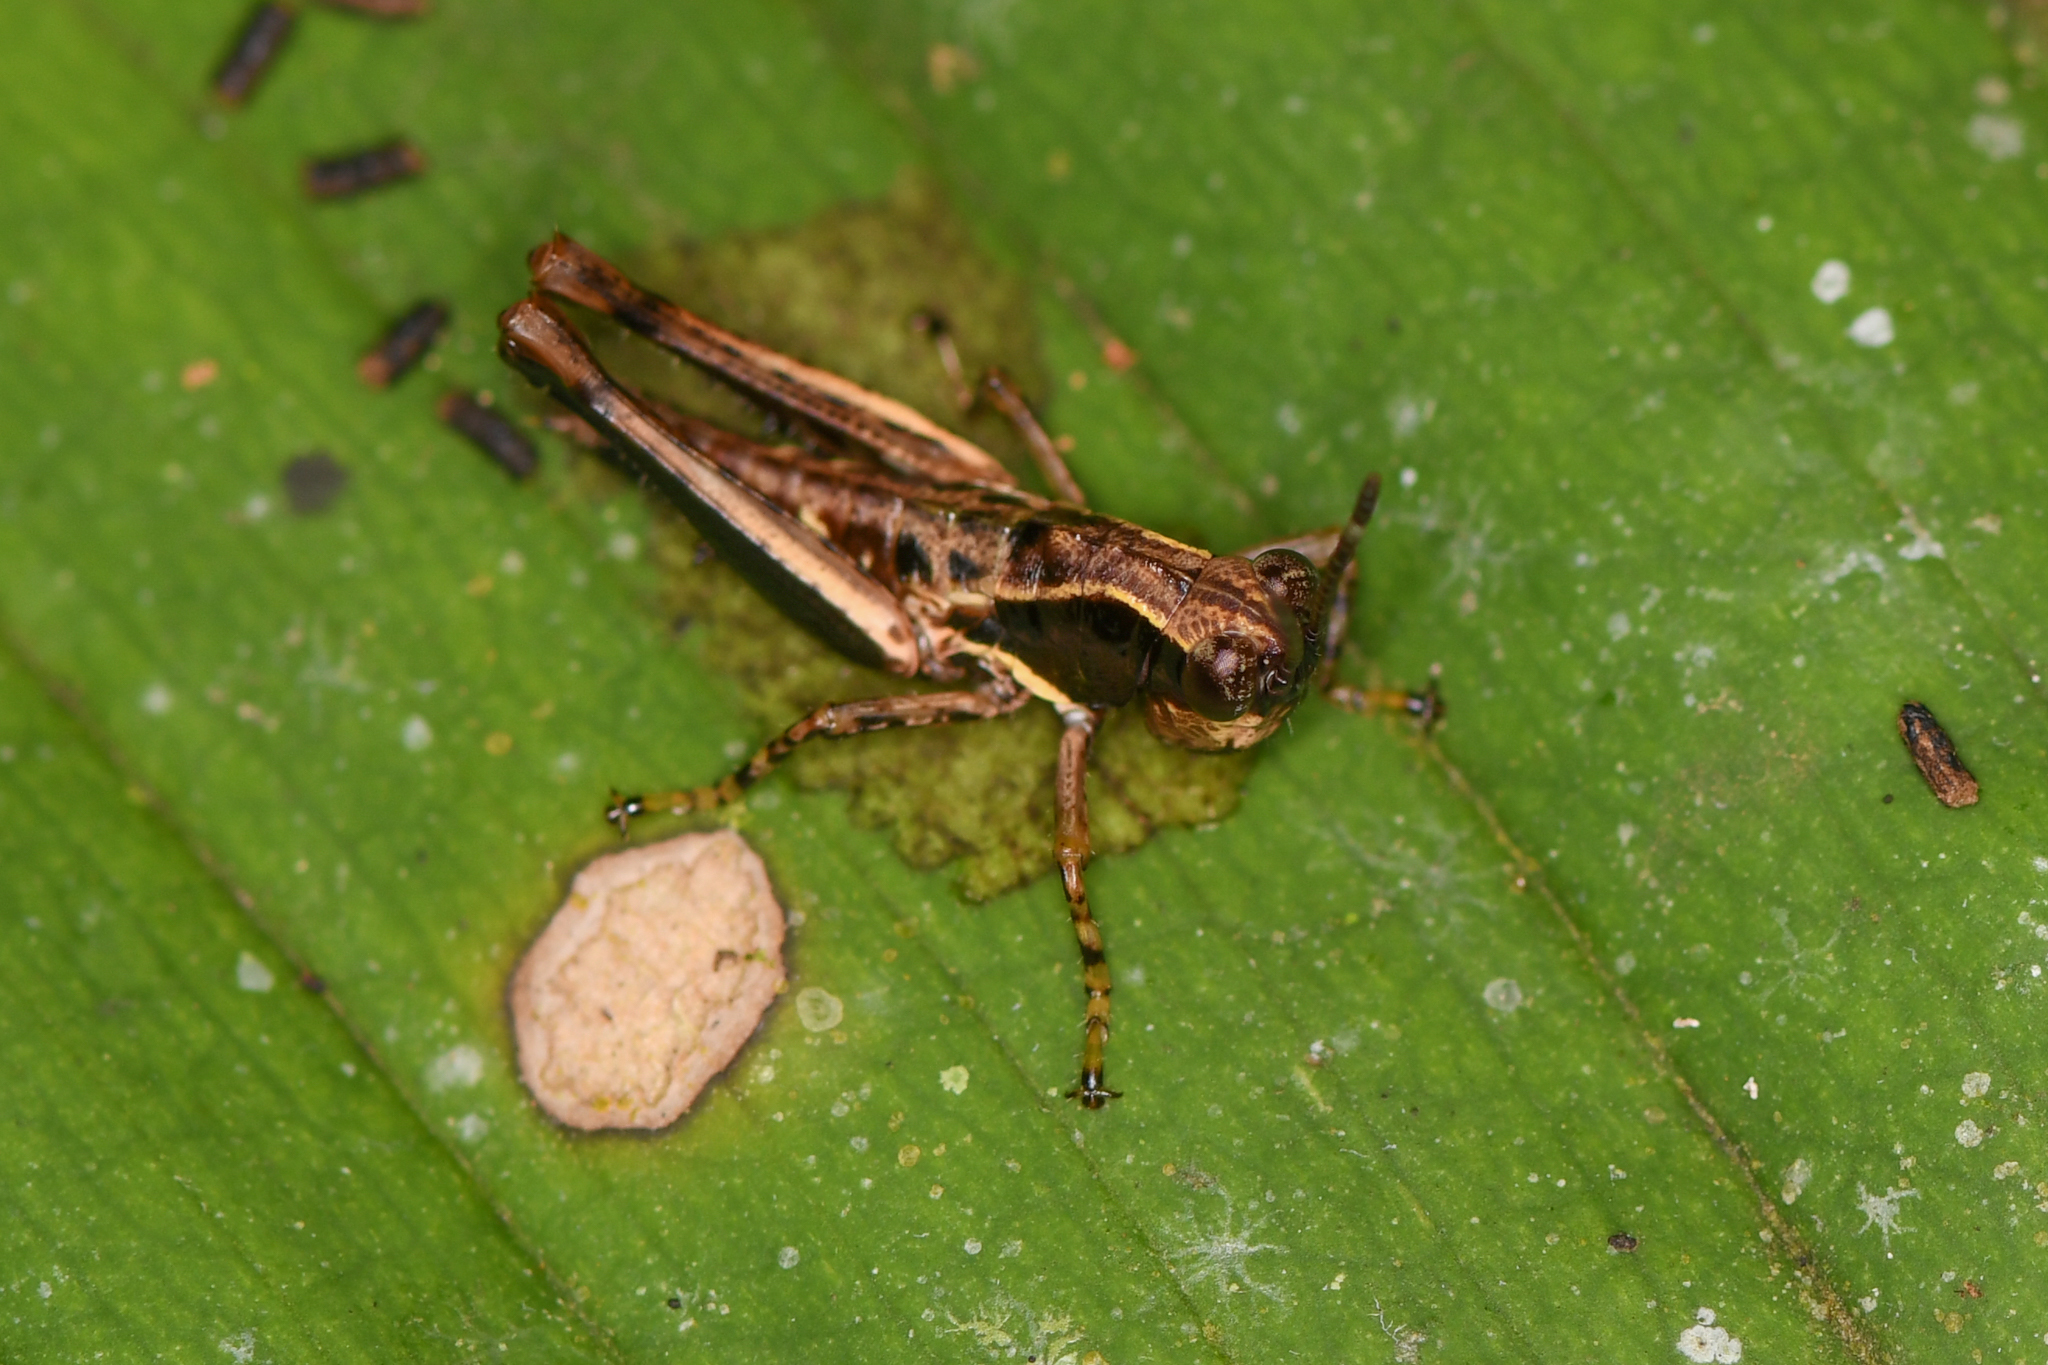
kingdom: Animalia
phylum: Arthropoda
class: Insecta
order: Orthoptera
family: Acrididae
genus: Microtylopteryx
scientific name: Microtylopteryx hebardi
